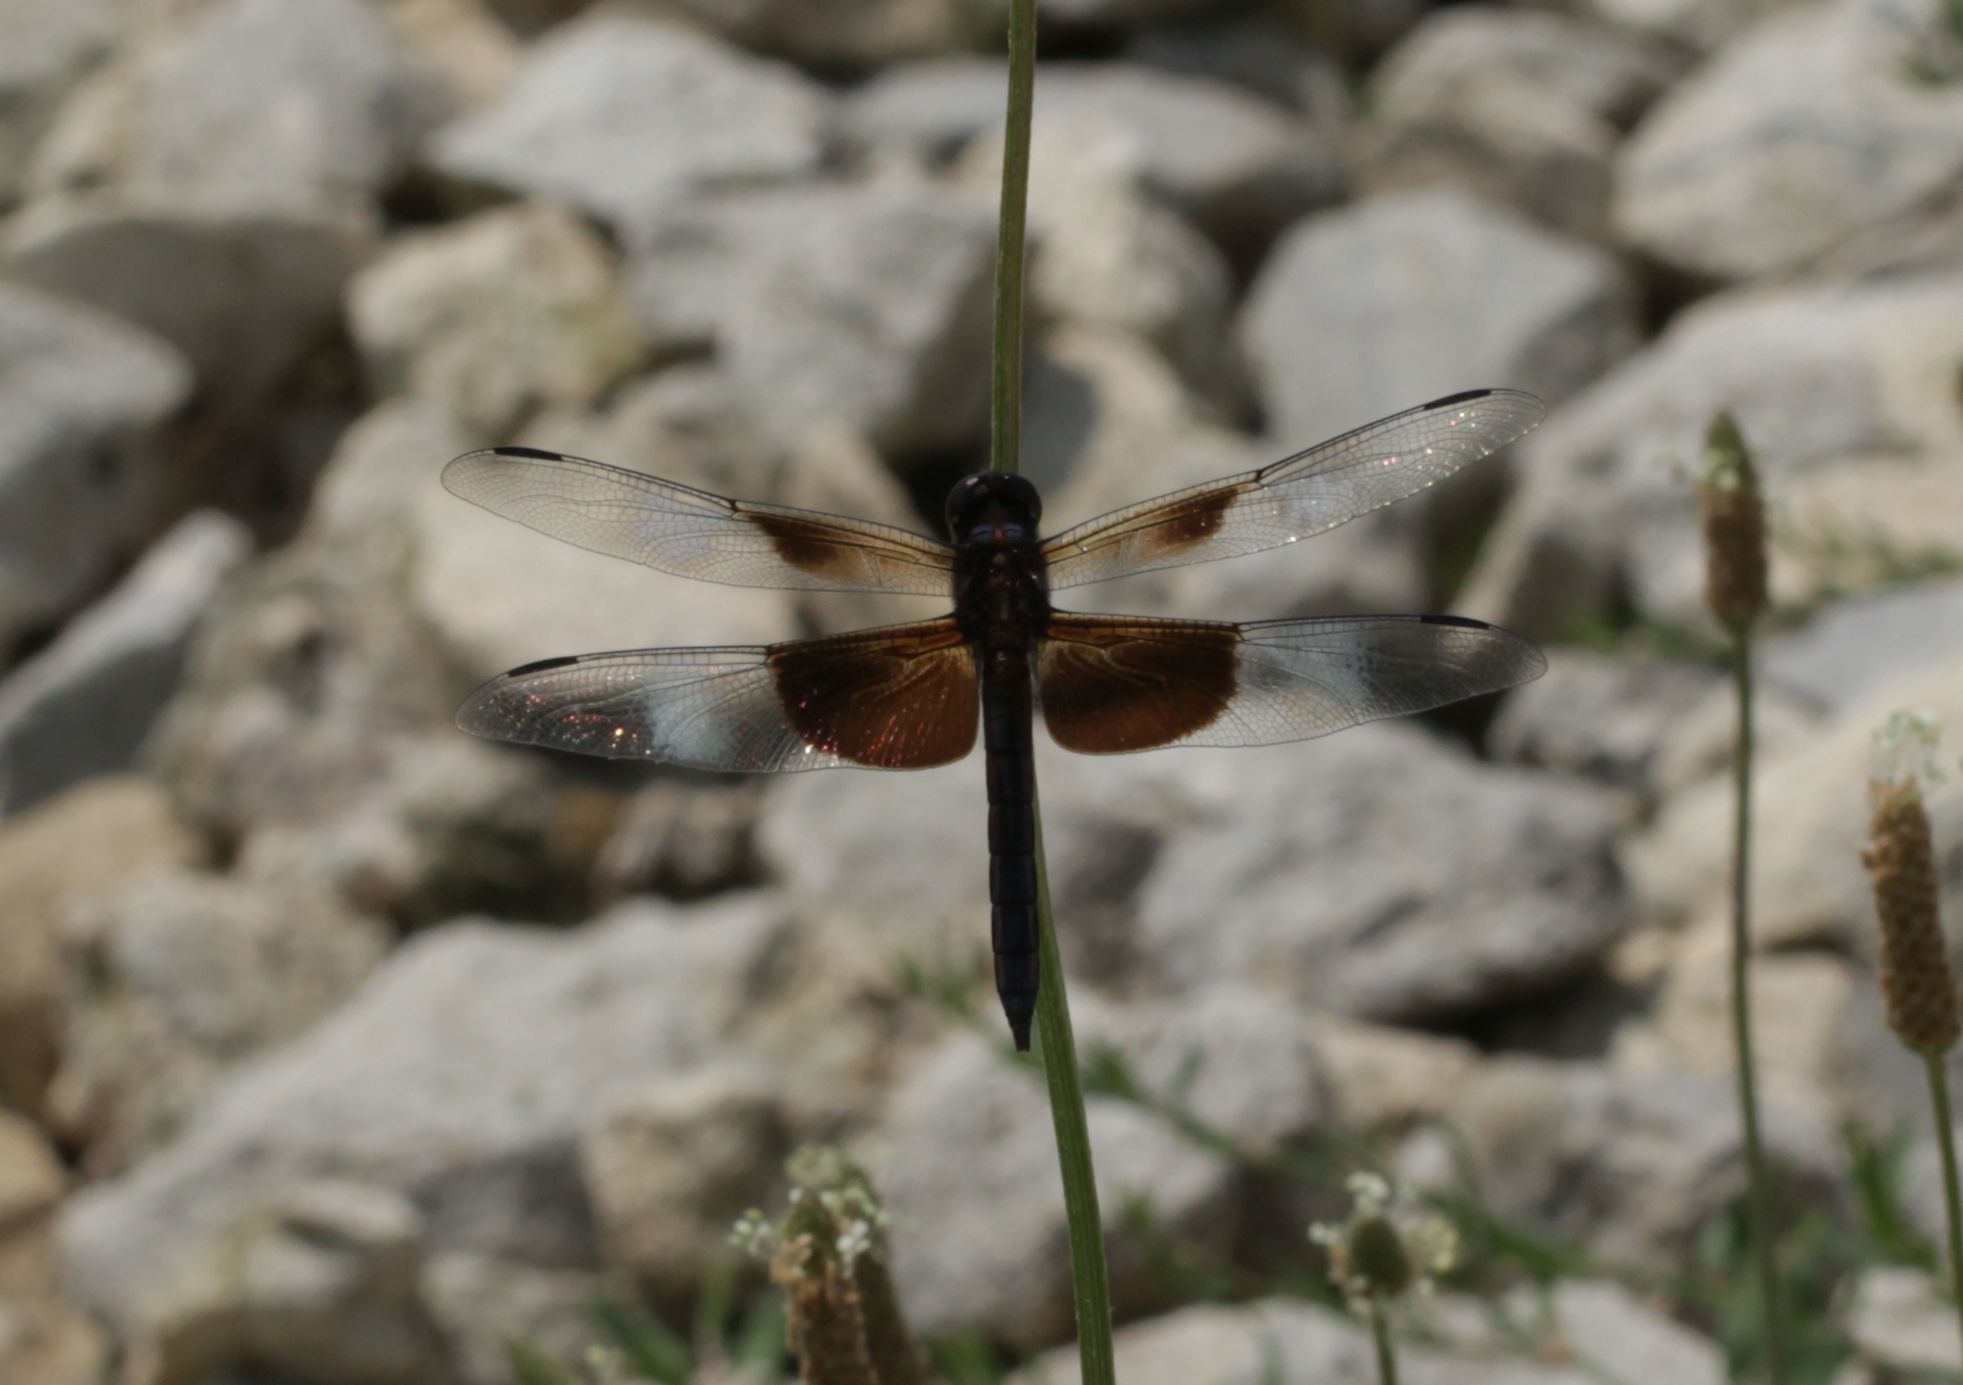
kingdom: Animalia
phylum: Arthropoda
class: Insecta
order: Odonata
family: Libellulidae
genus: Libellula
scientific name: Libellula luctuosa
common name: Widow skimmer
